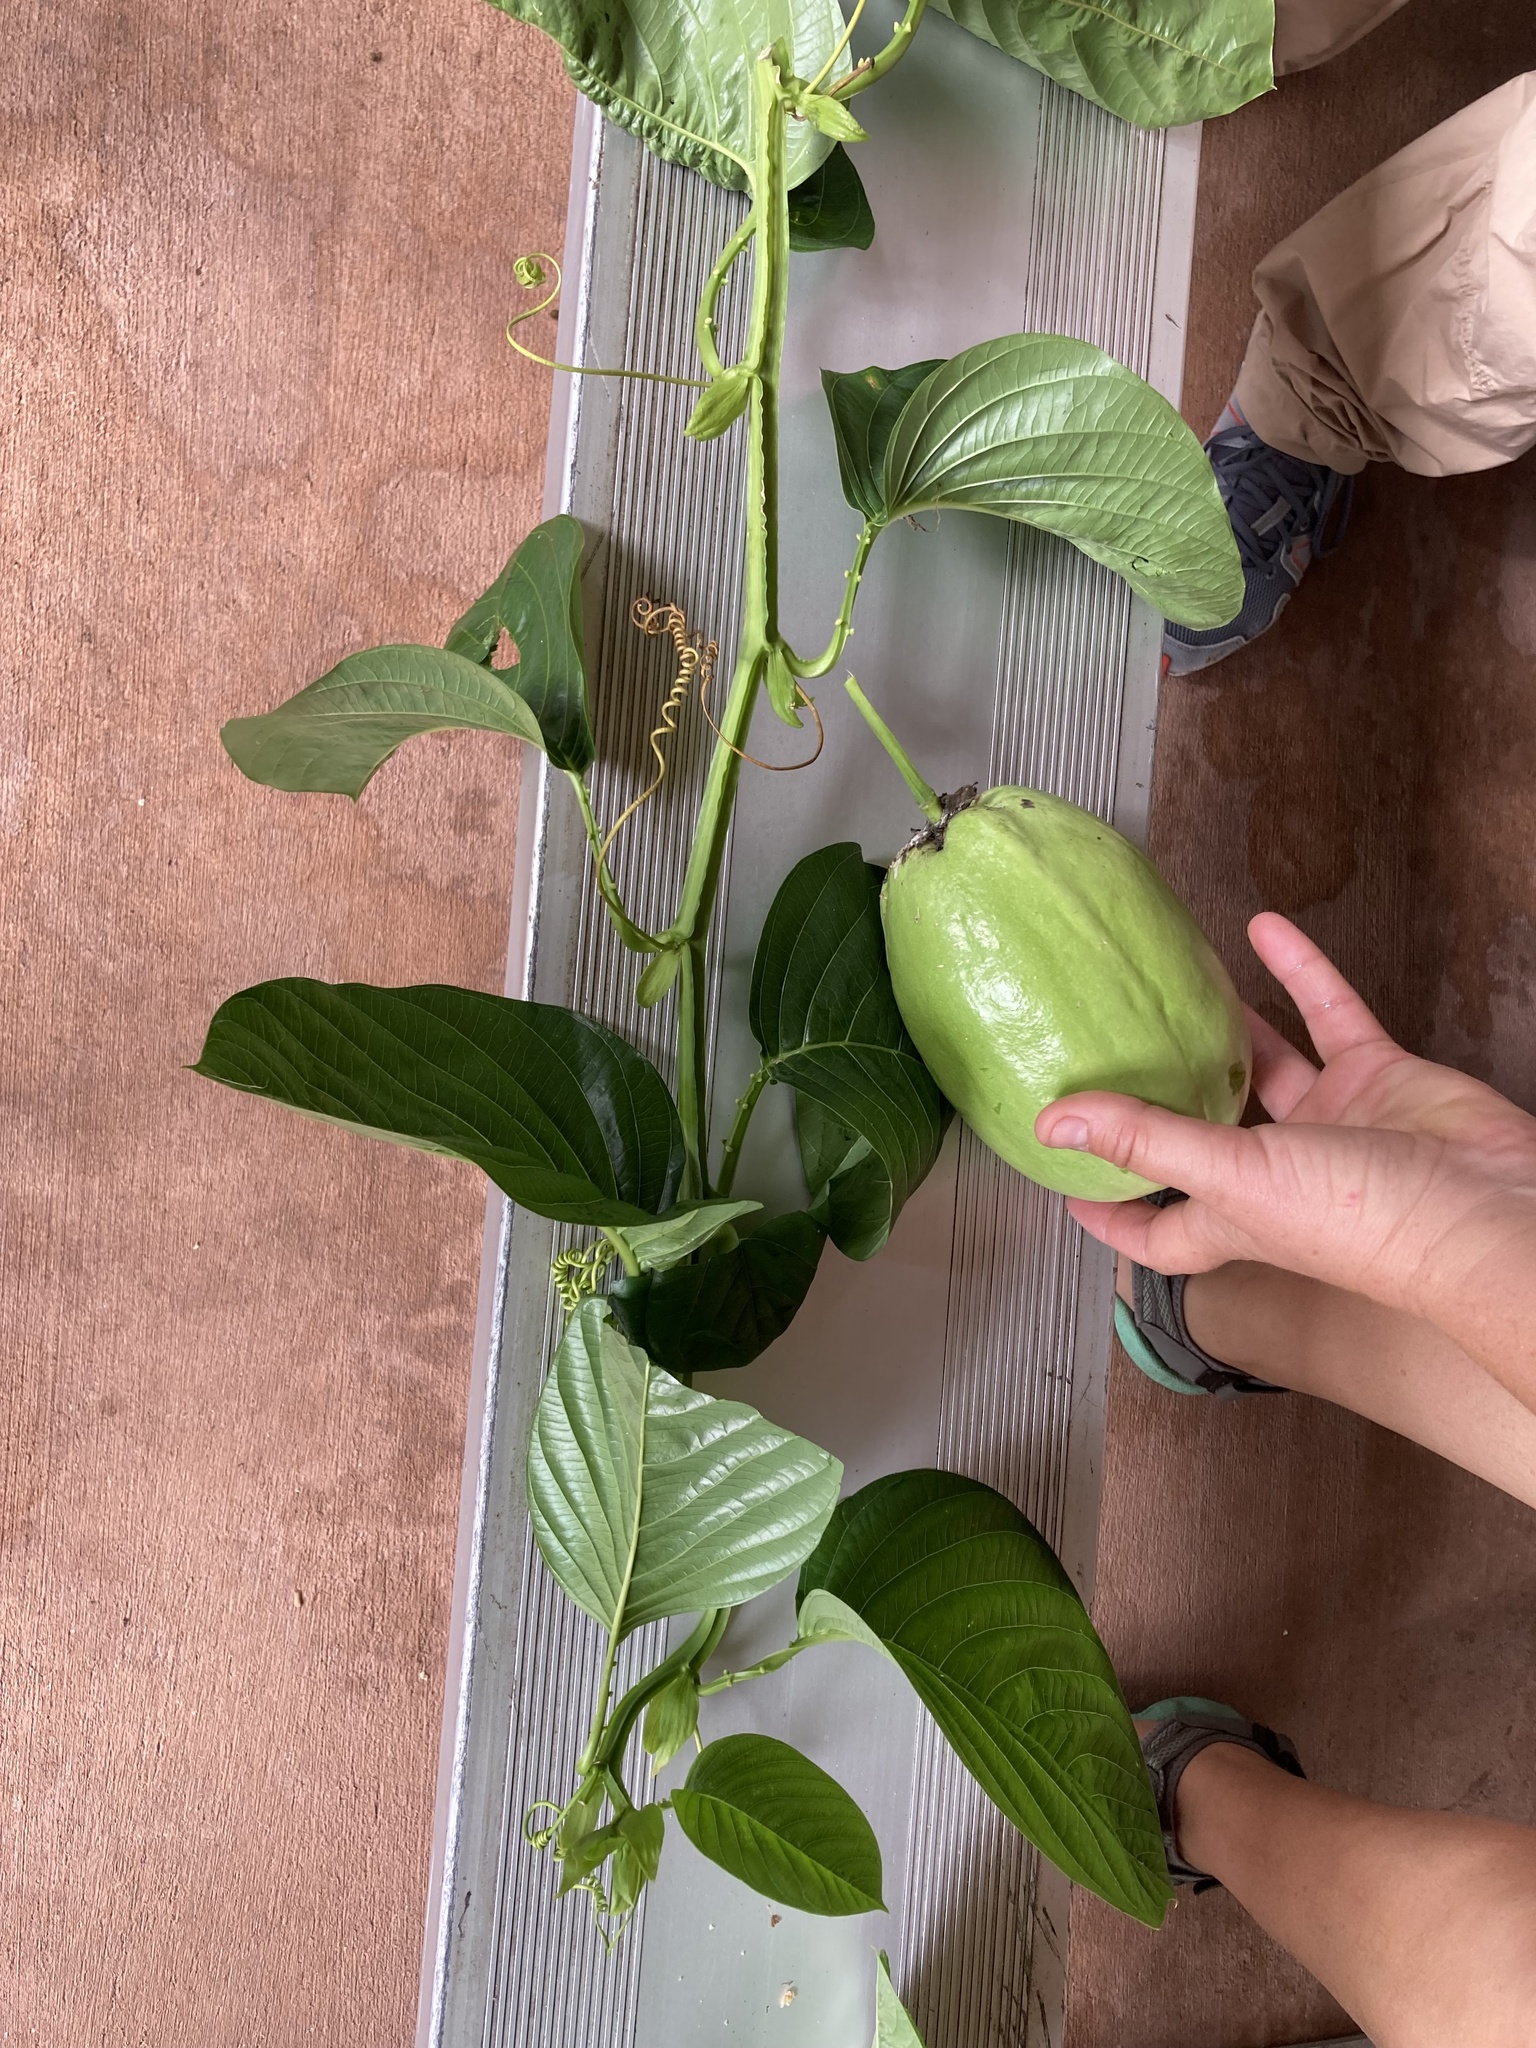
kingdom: Plantae
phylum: Tracheophyta
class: Magnoliopsida
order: Malpighiales
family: Passifloraceae
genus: Passiflora
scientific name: Passiflora quadrangularis
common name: Giant granadilla
